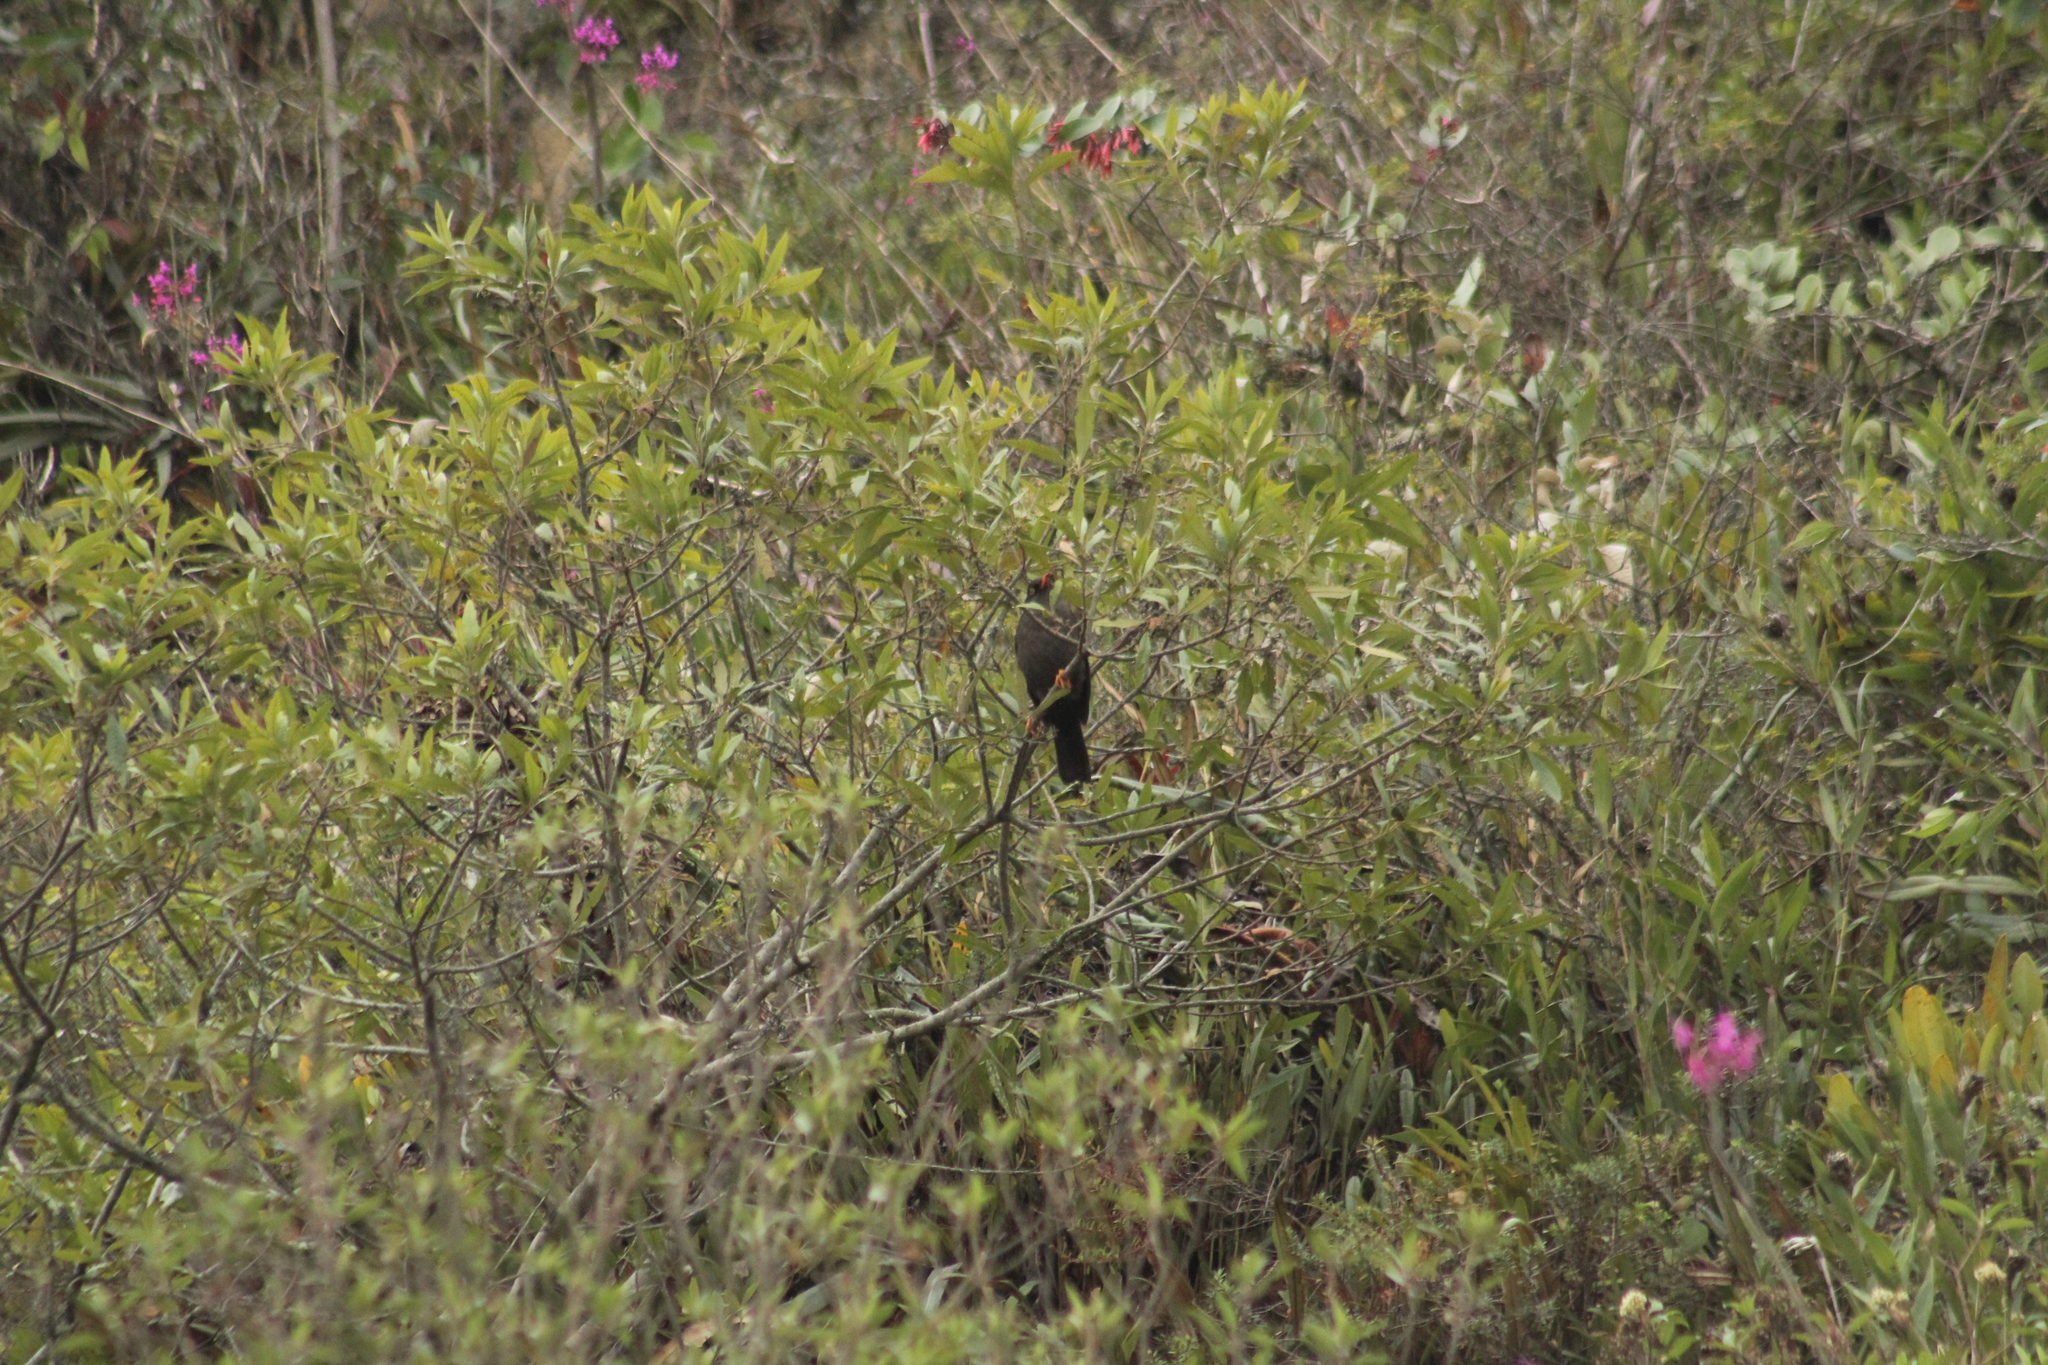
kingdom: Animalia
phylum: Chordata
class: Aves
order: Passeriformes
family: Turdidae
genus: Turdus
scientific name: Turdus fuscater
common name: Great thrush
